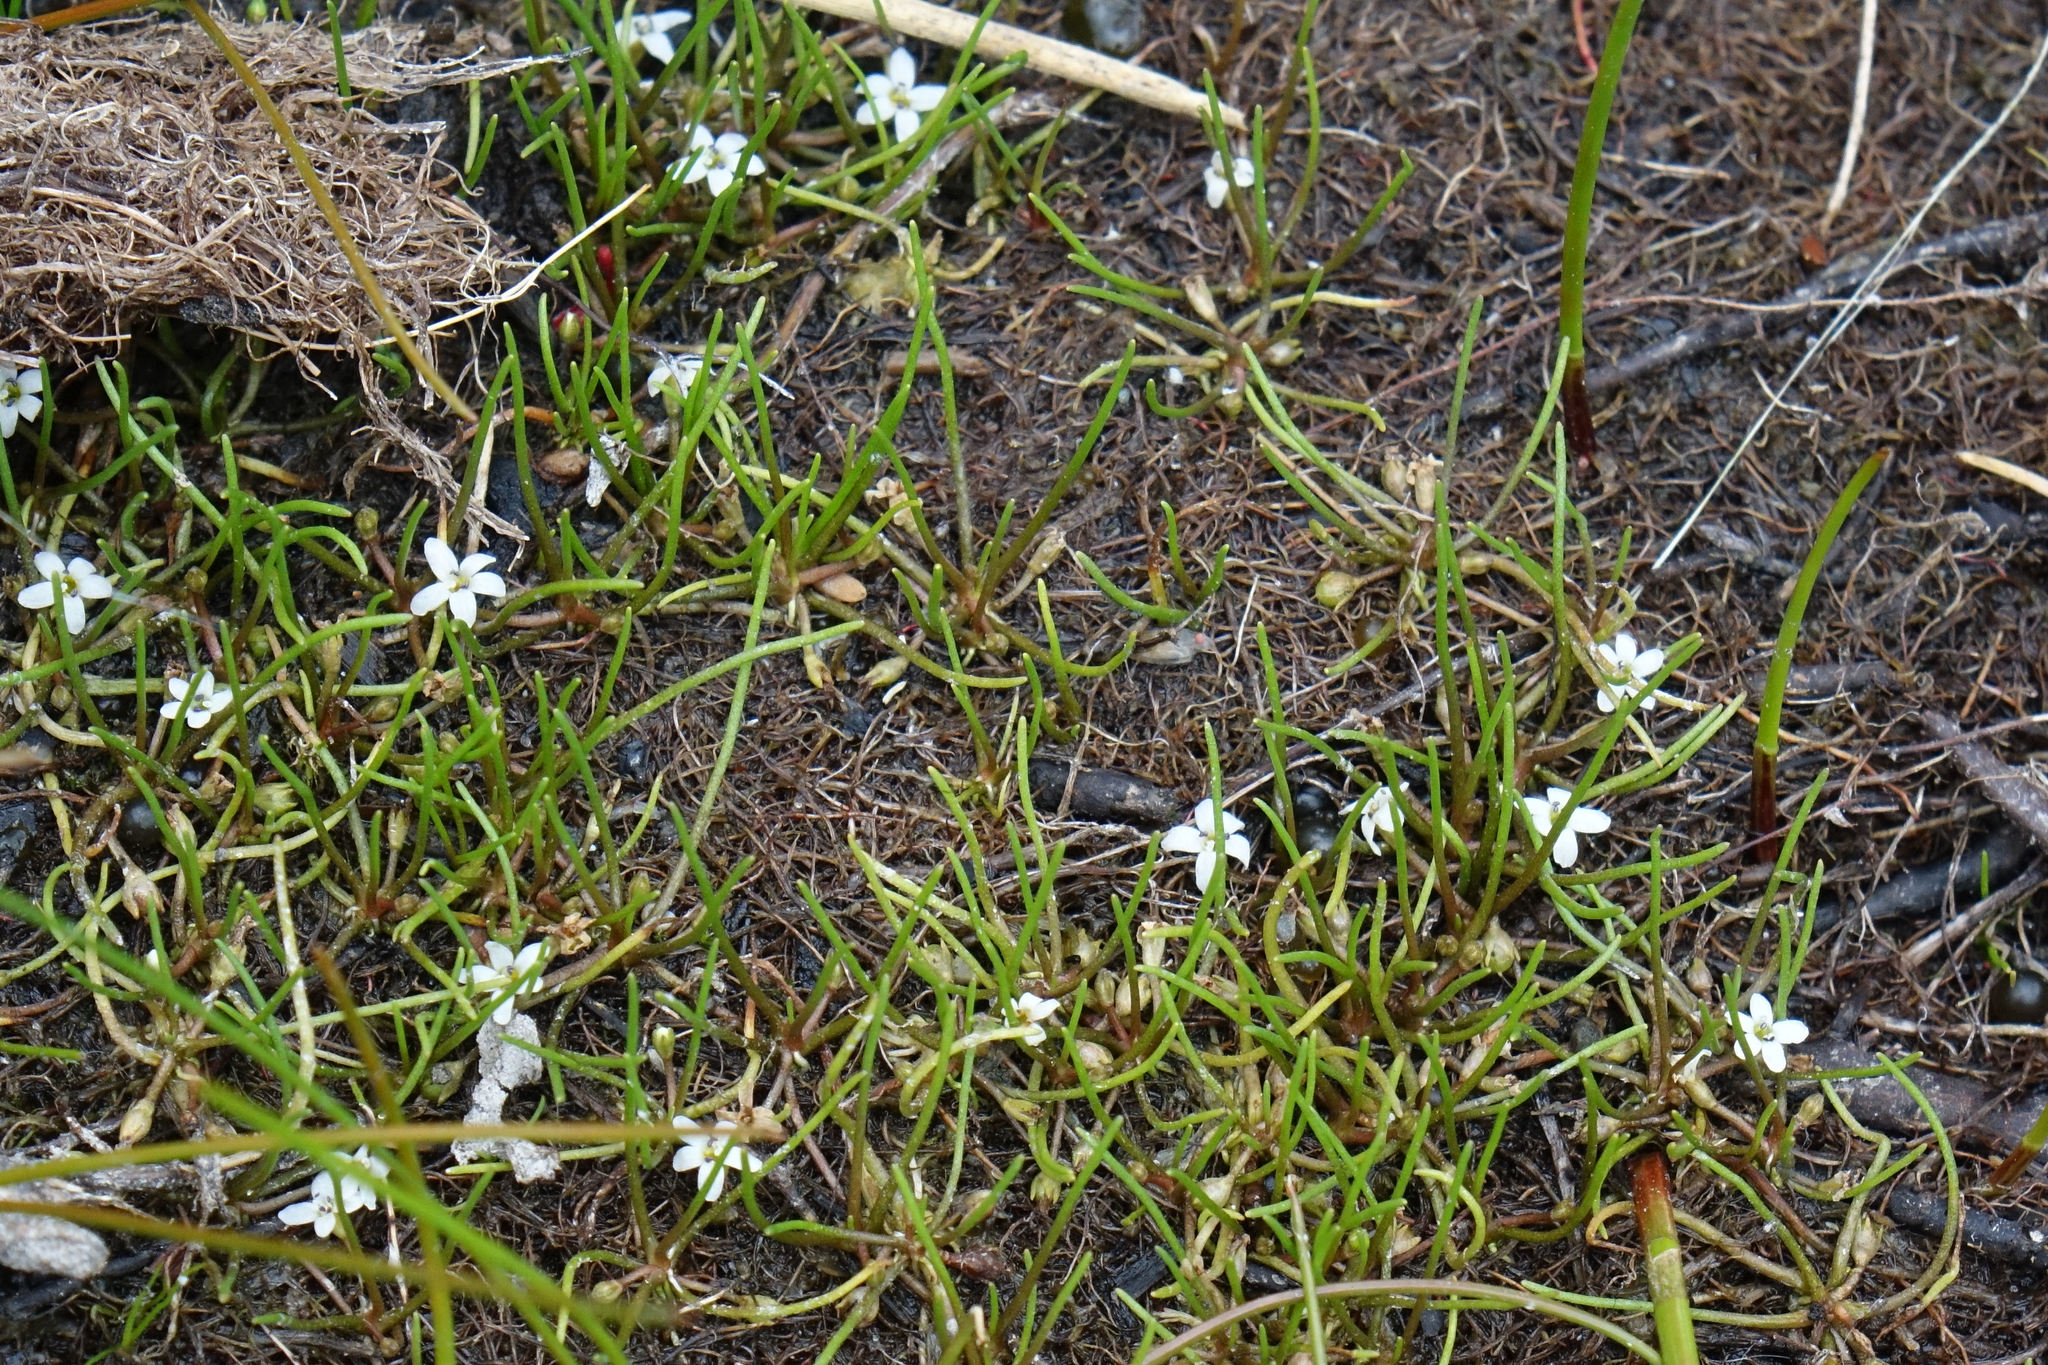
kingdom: Plantae
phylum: Tracheophyta
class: Magnoliopsida
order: Lamiales
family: Scrophulariaceae
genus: Limosella
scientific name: Limosella australis
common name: Welsh mudwort
